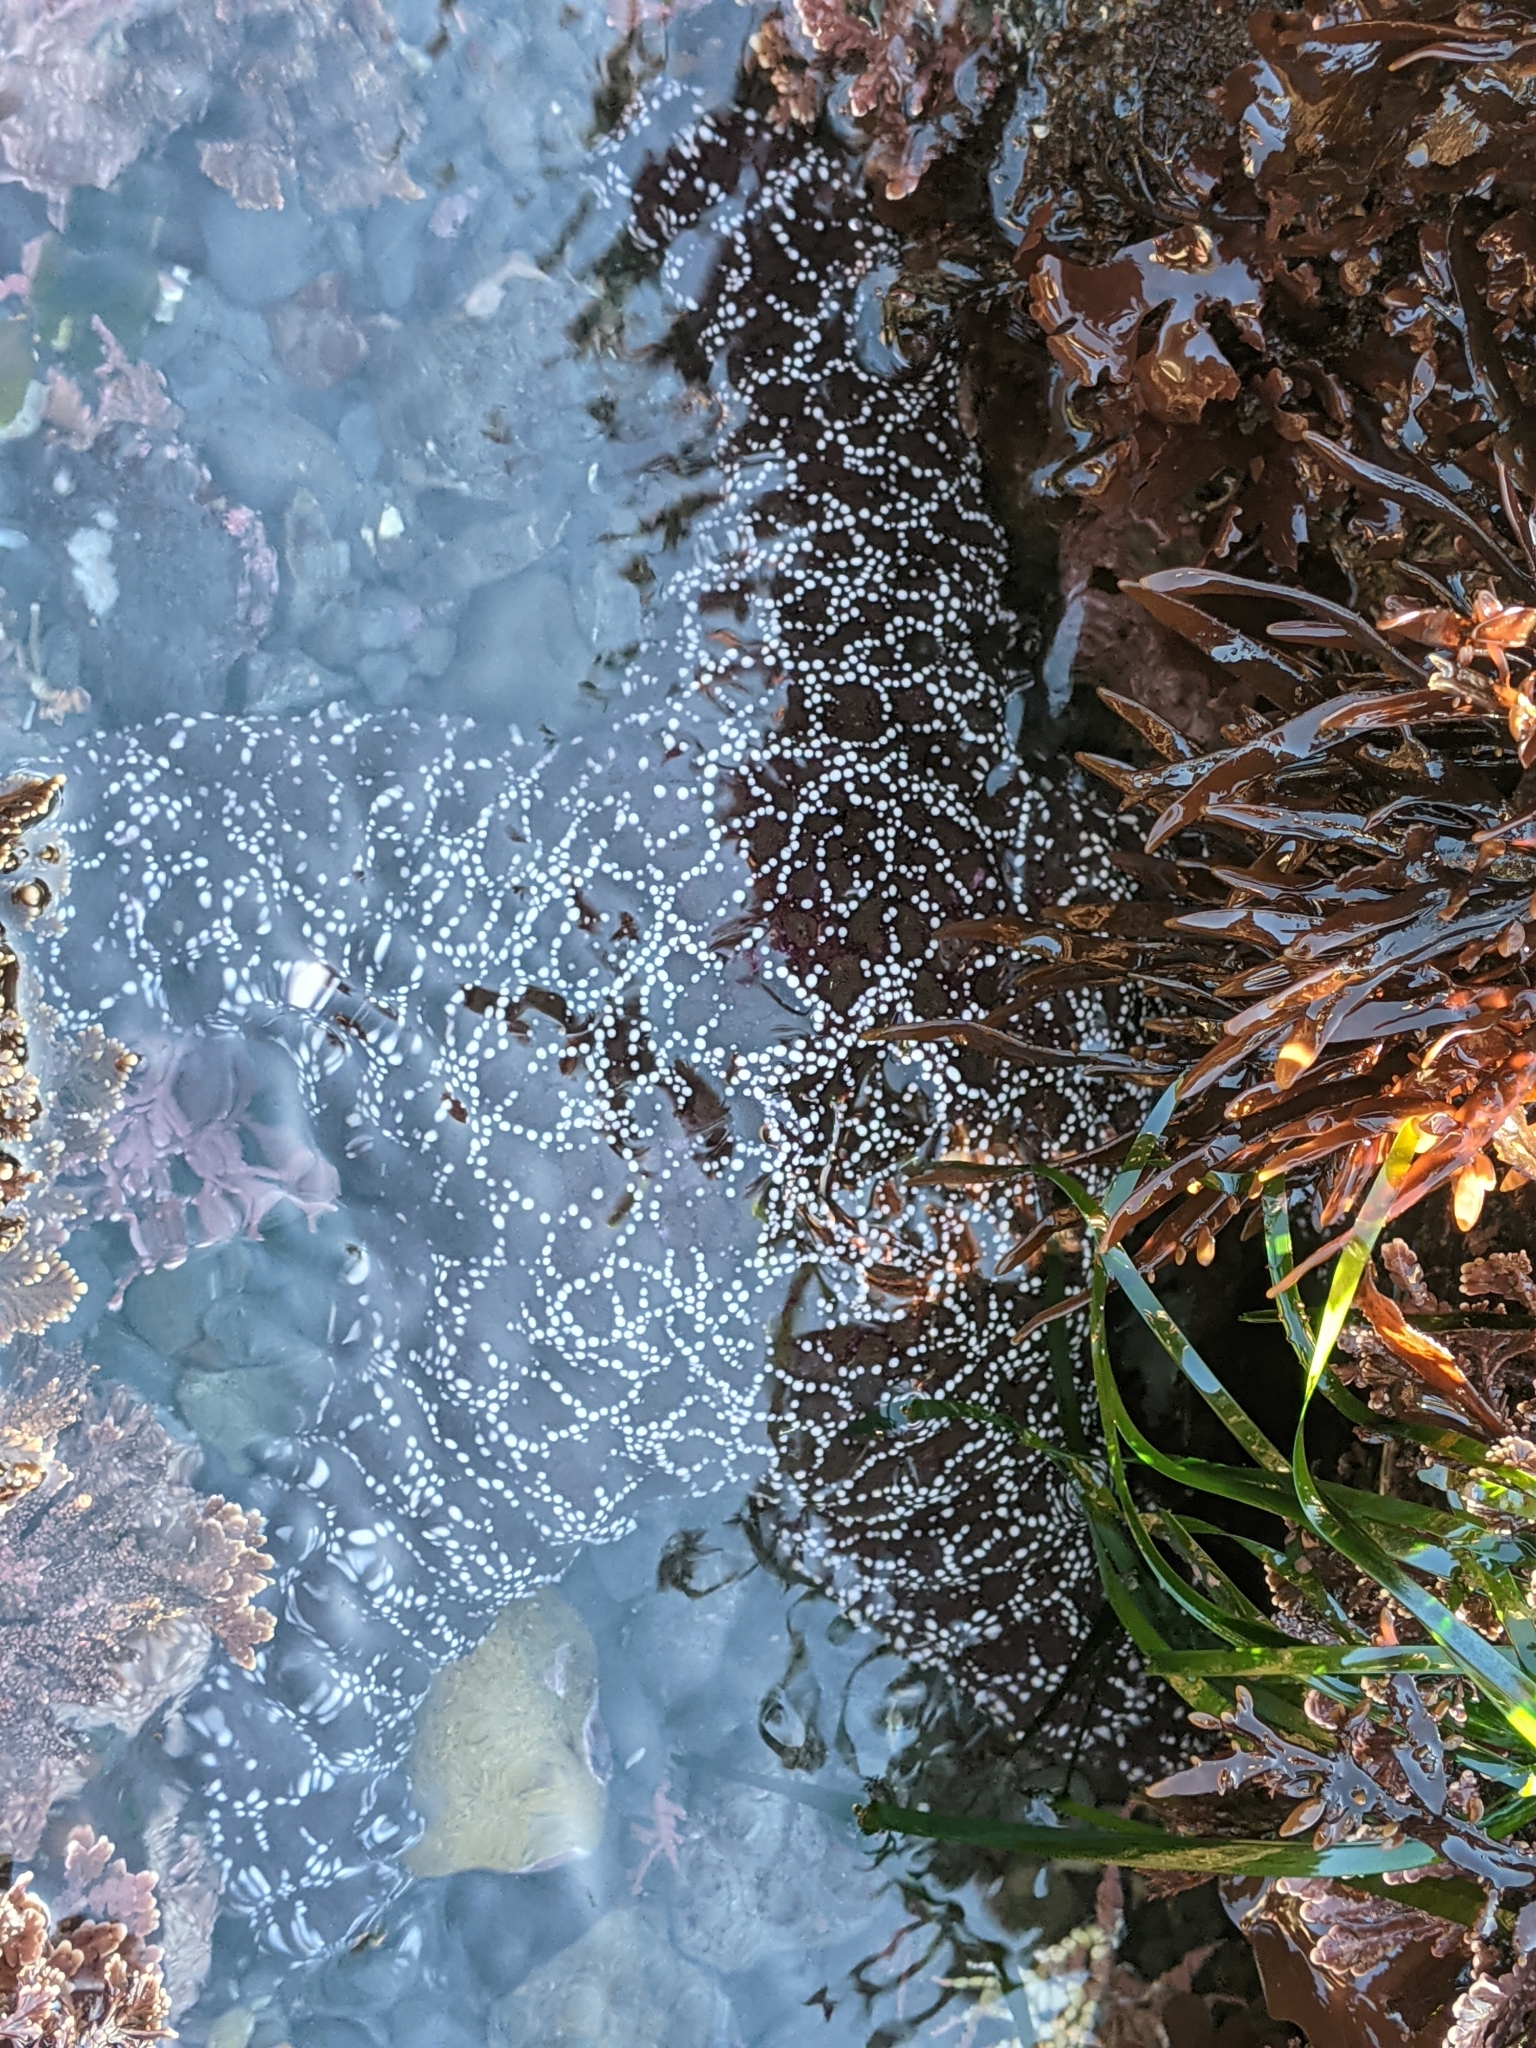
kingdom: Animalia
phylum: Echinodermata
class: Asteroidea
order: Forcipulatida
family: Asteriidae
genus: Pisaster
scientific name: Pisaster ochraceus
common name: Ochre stars
